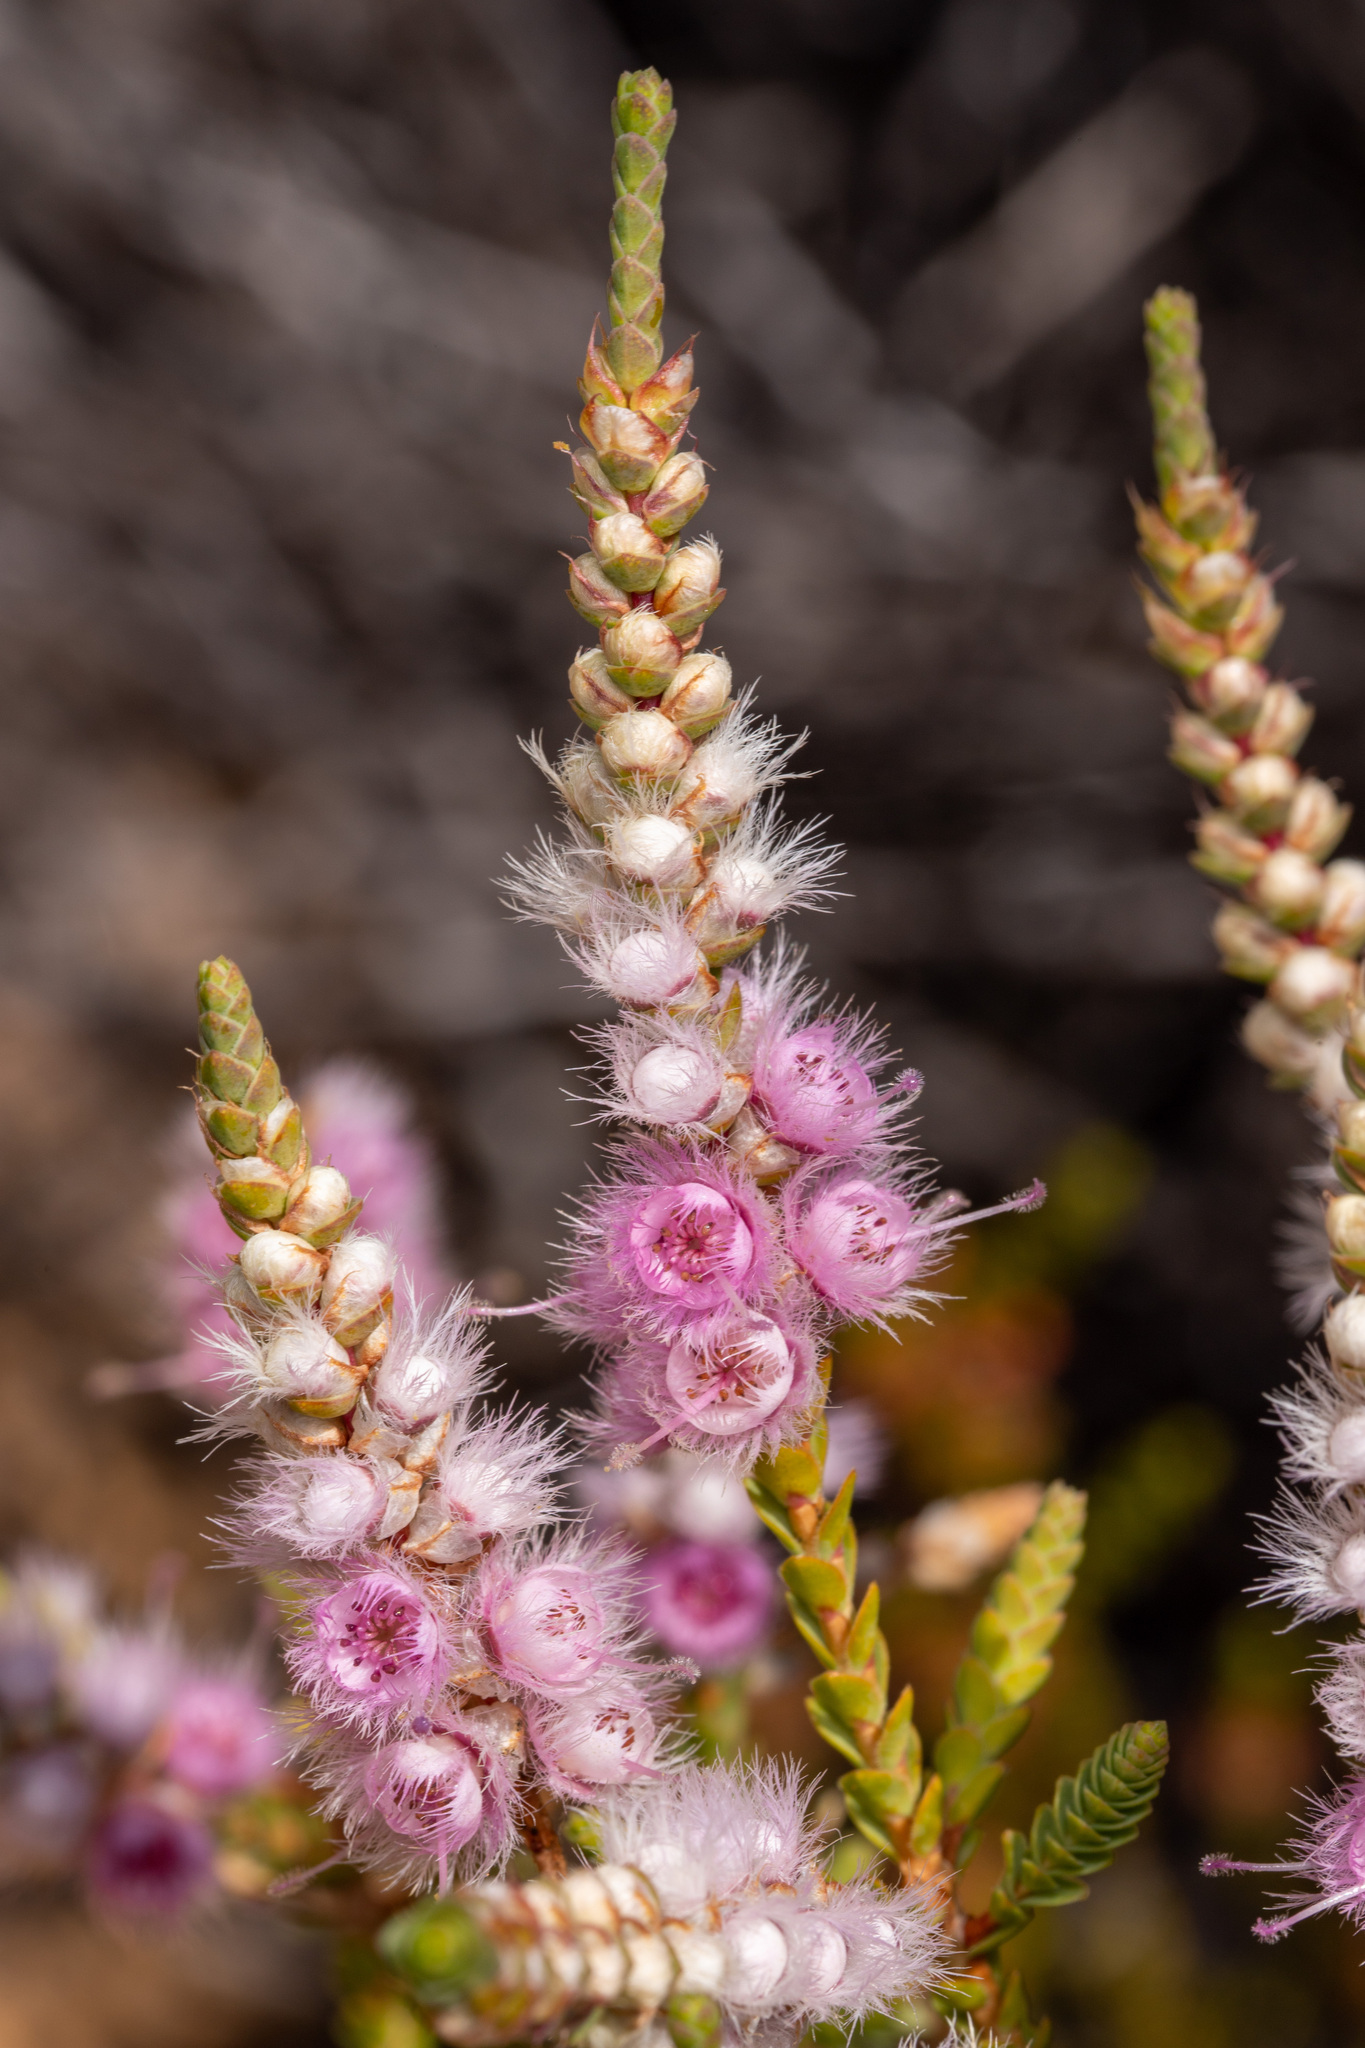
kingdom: Plantae
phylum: Tracheophyta
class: Magnoliopsida
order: Myrtales
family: Myrtaceae
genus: Verticordia
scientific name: Verticordia spicata
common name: Spike feather-flower
